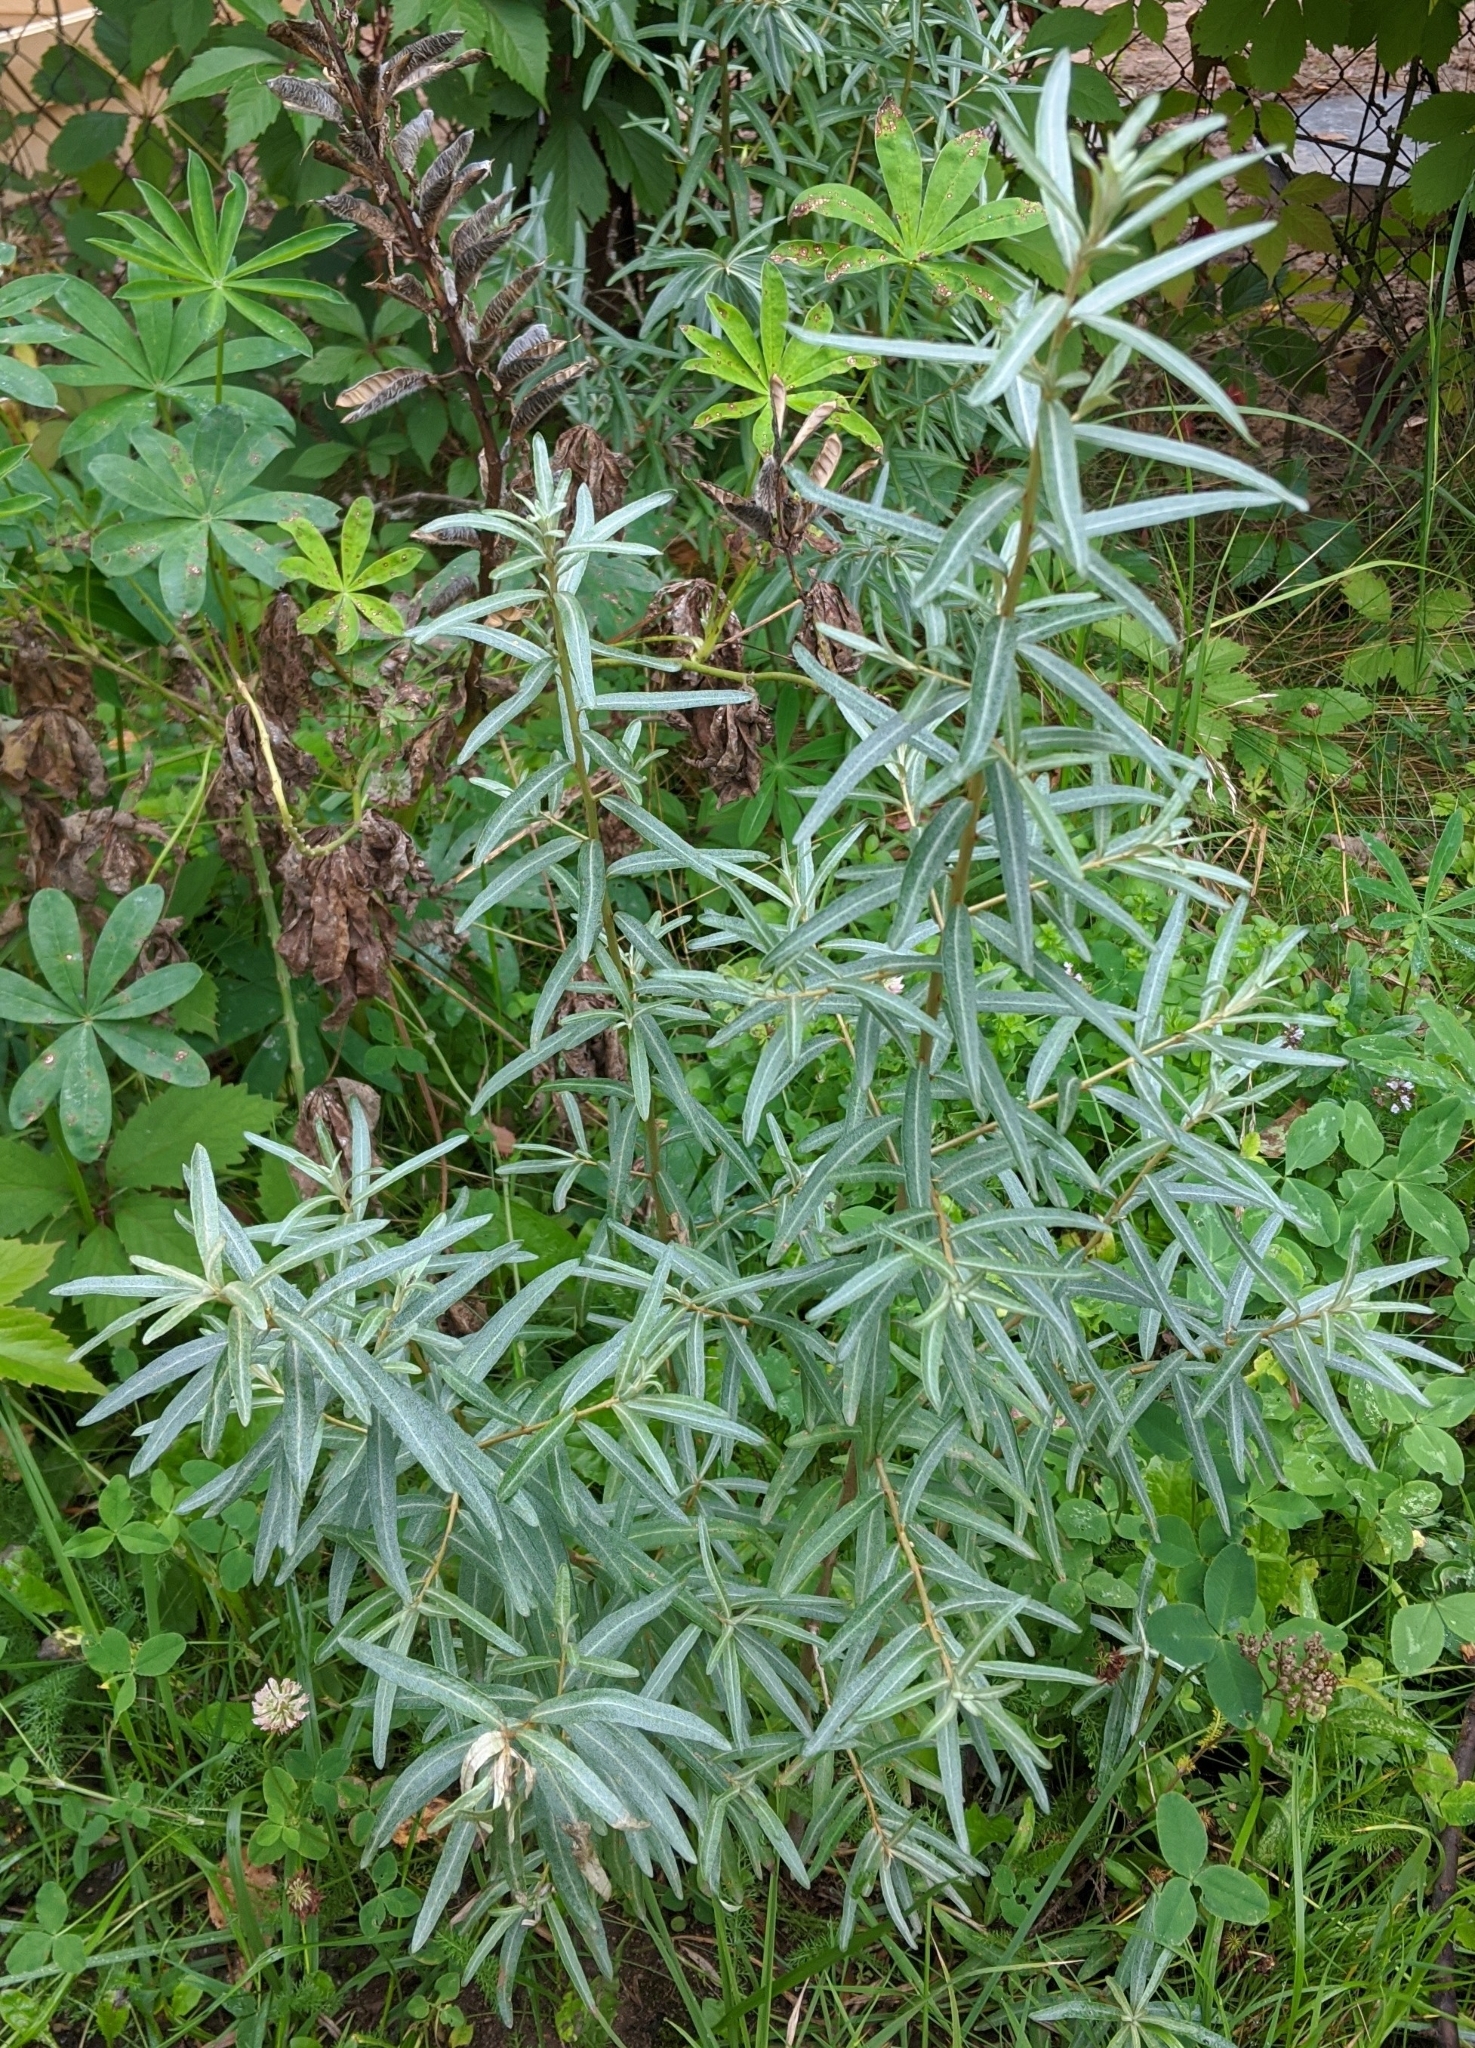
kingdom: Plantae
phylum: Tracheophyta
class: Magnoliopsida
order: Rosales
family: Elaeagnaceae
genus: Hippophae
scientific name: Hippophae rhamnoides
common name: Sea-buckthorn
